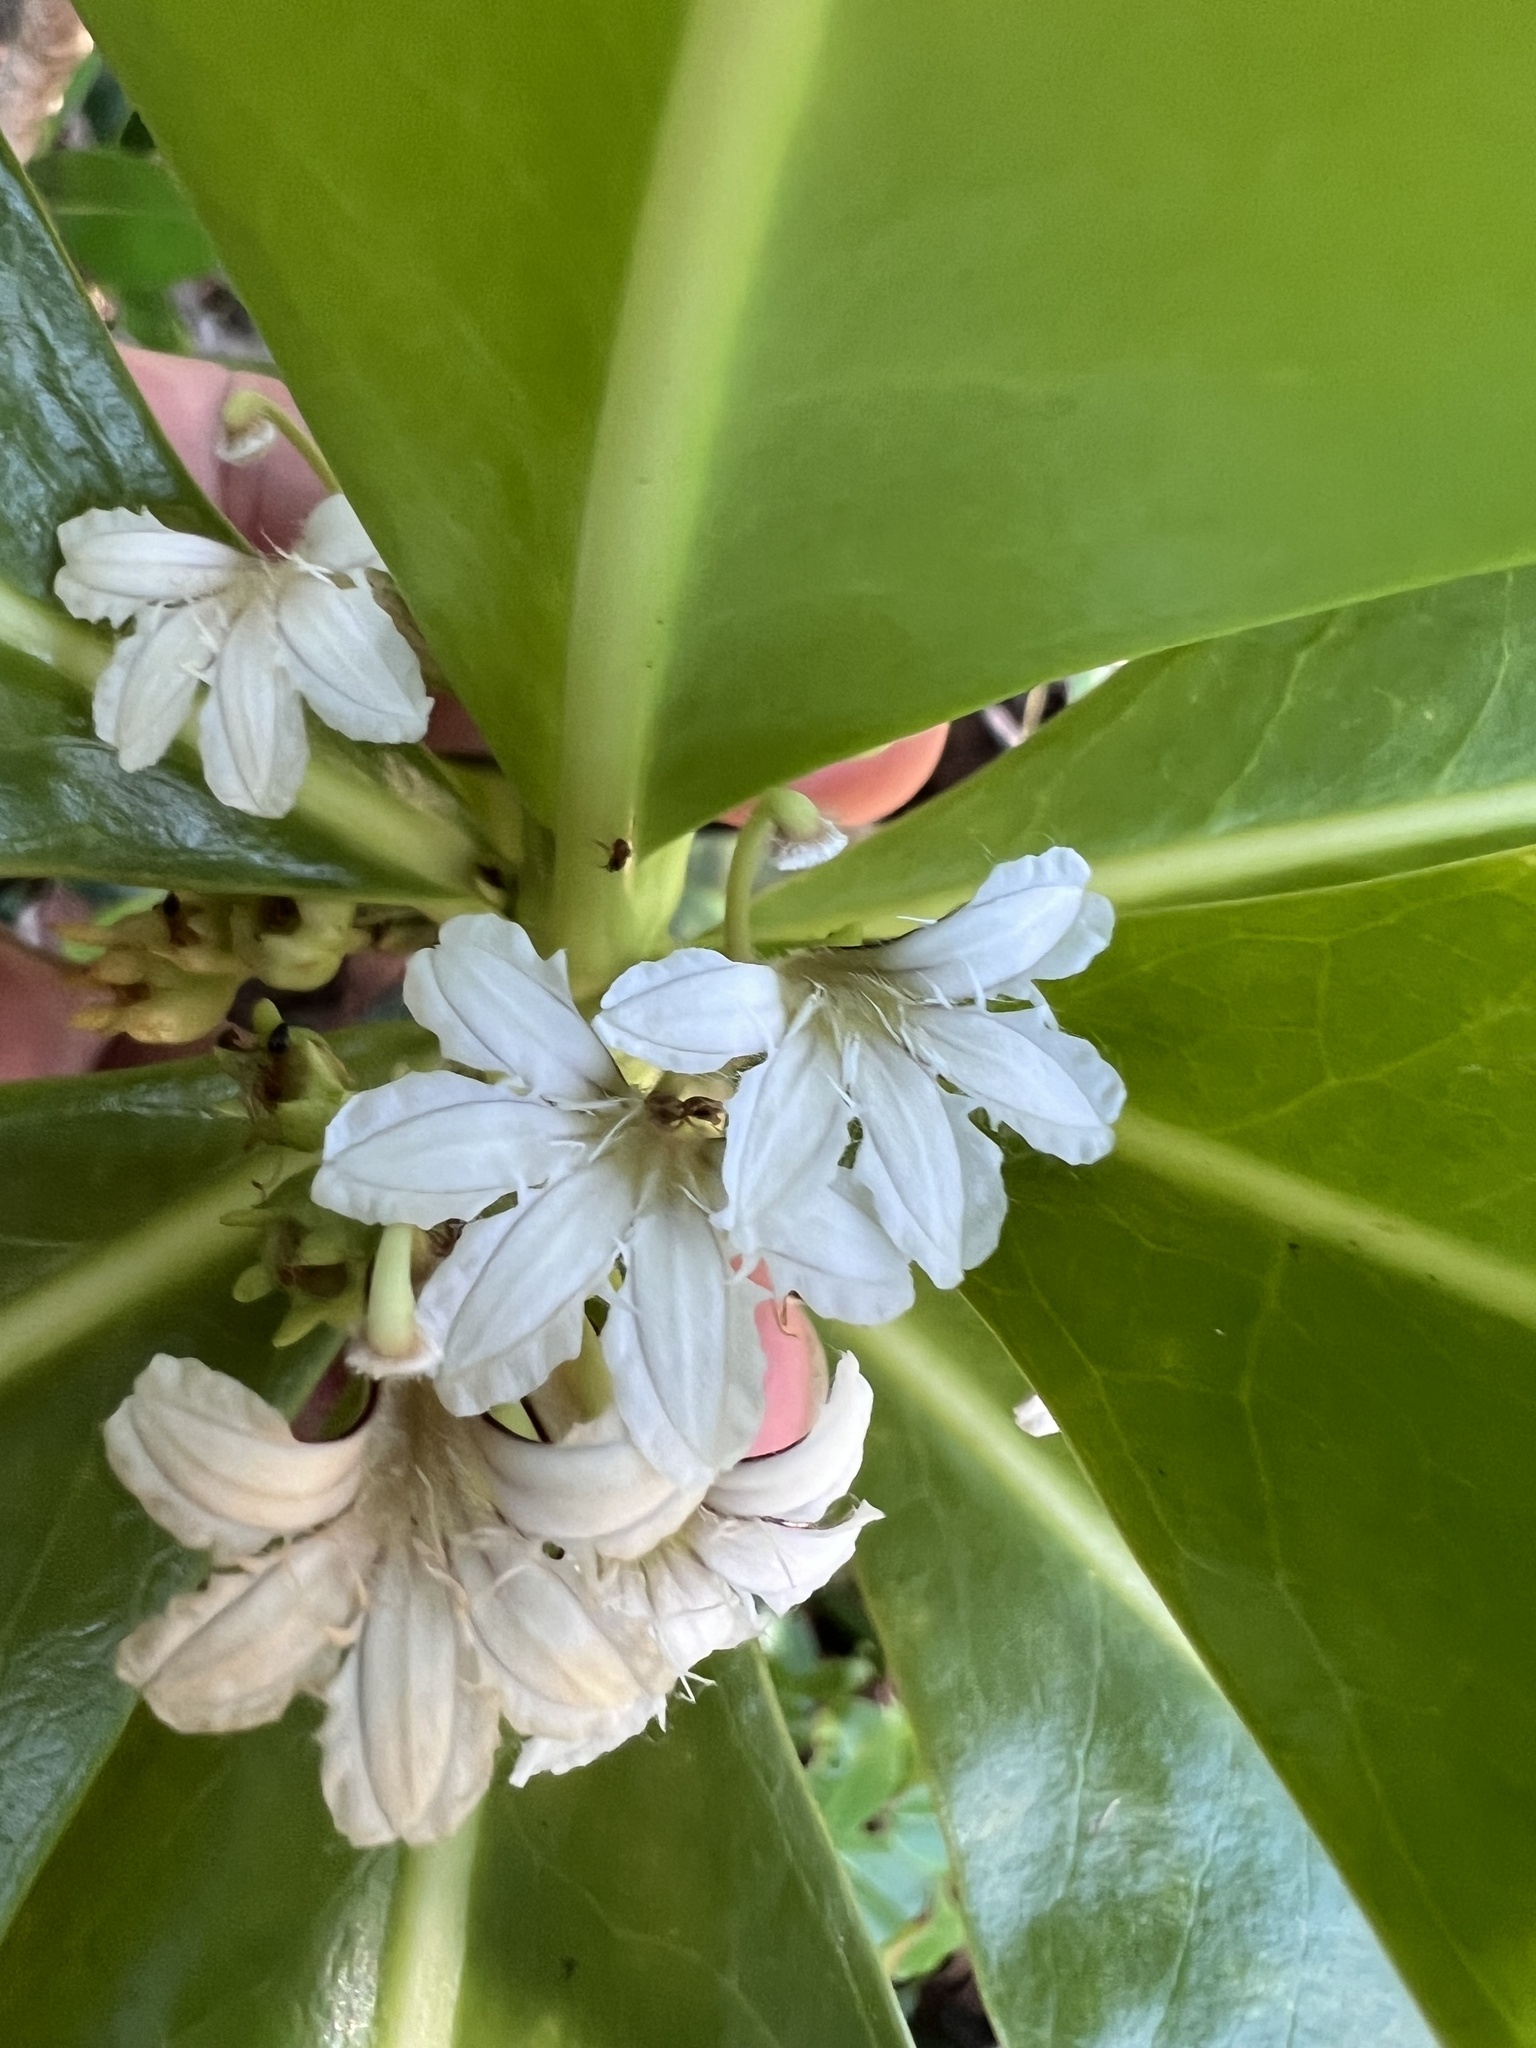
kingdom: Plantae
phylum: Tracheophyta
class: Magnoliopsida
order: Asterales
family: Goodeniaceae
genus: Scaevola
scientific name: Scaevola taccada
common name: Sea lettucetree
